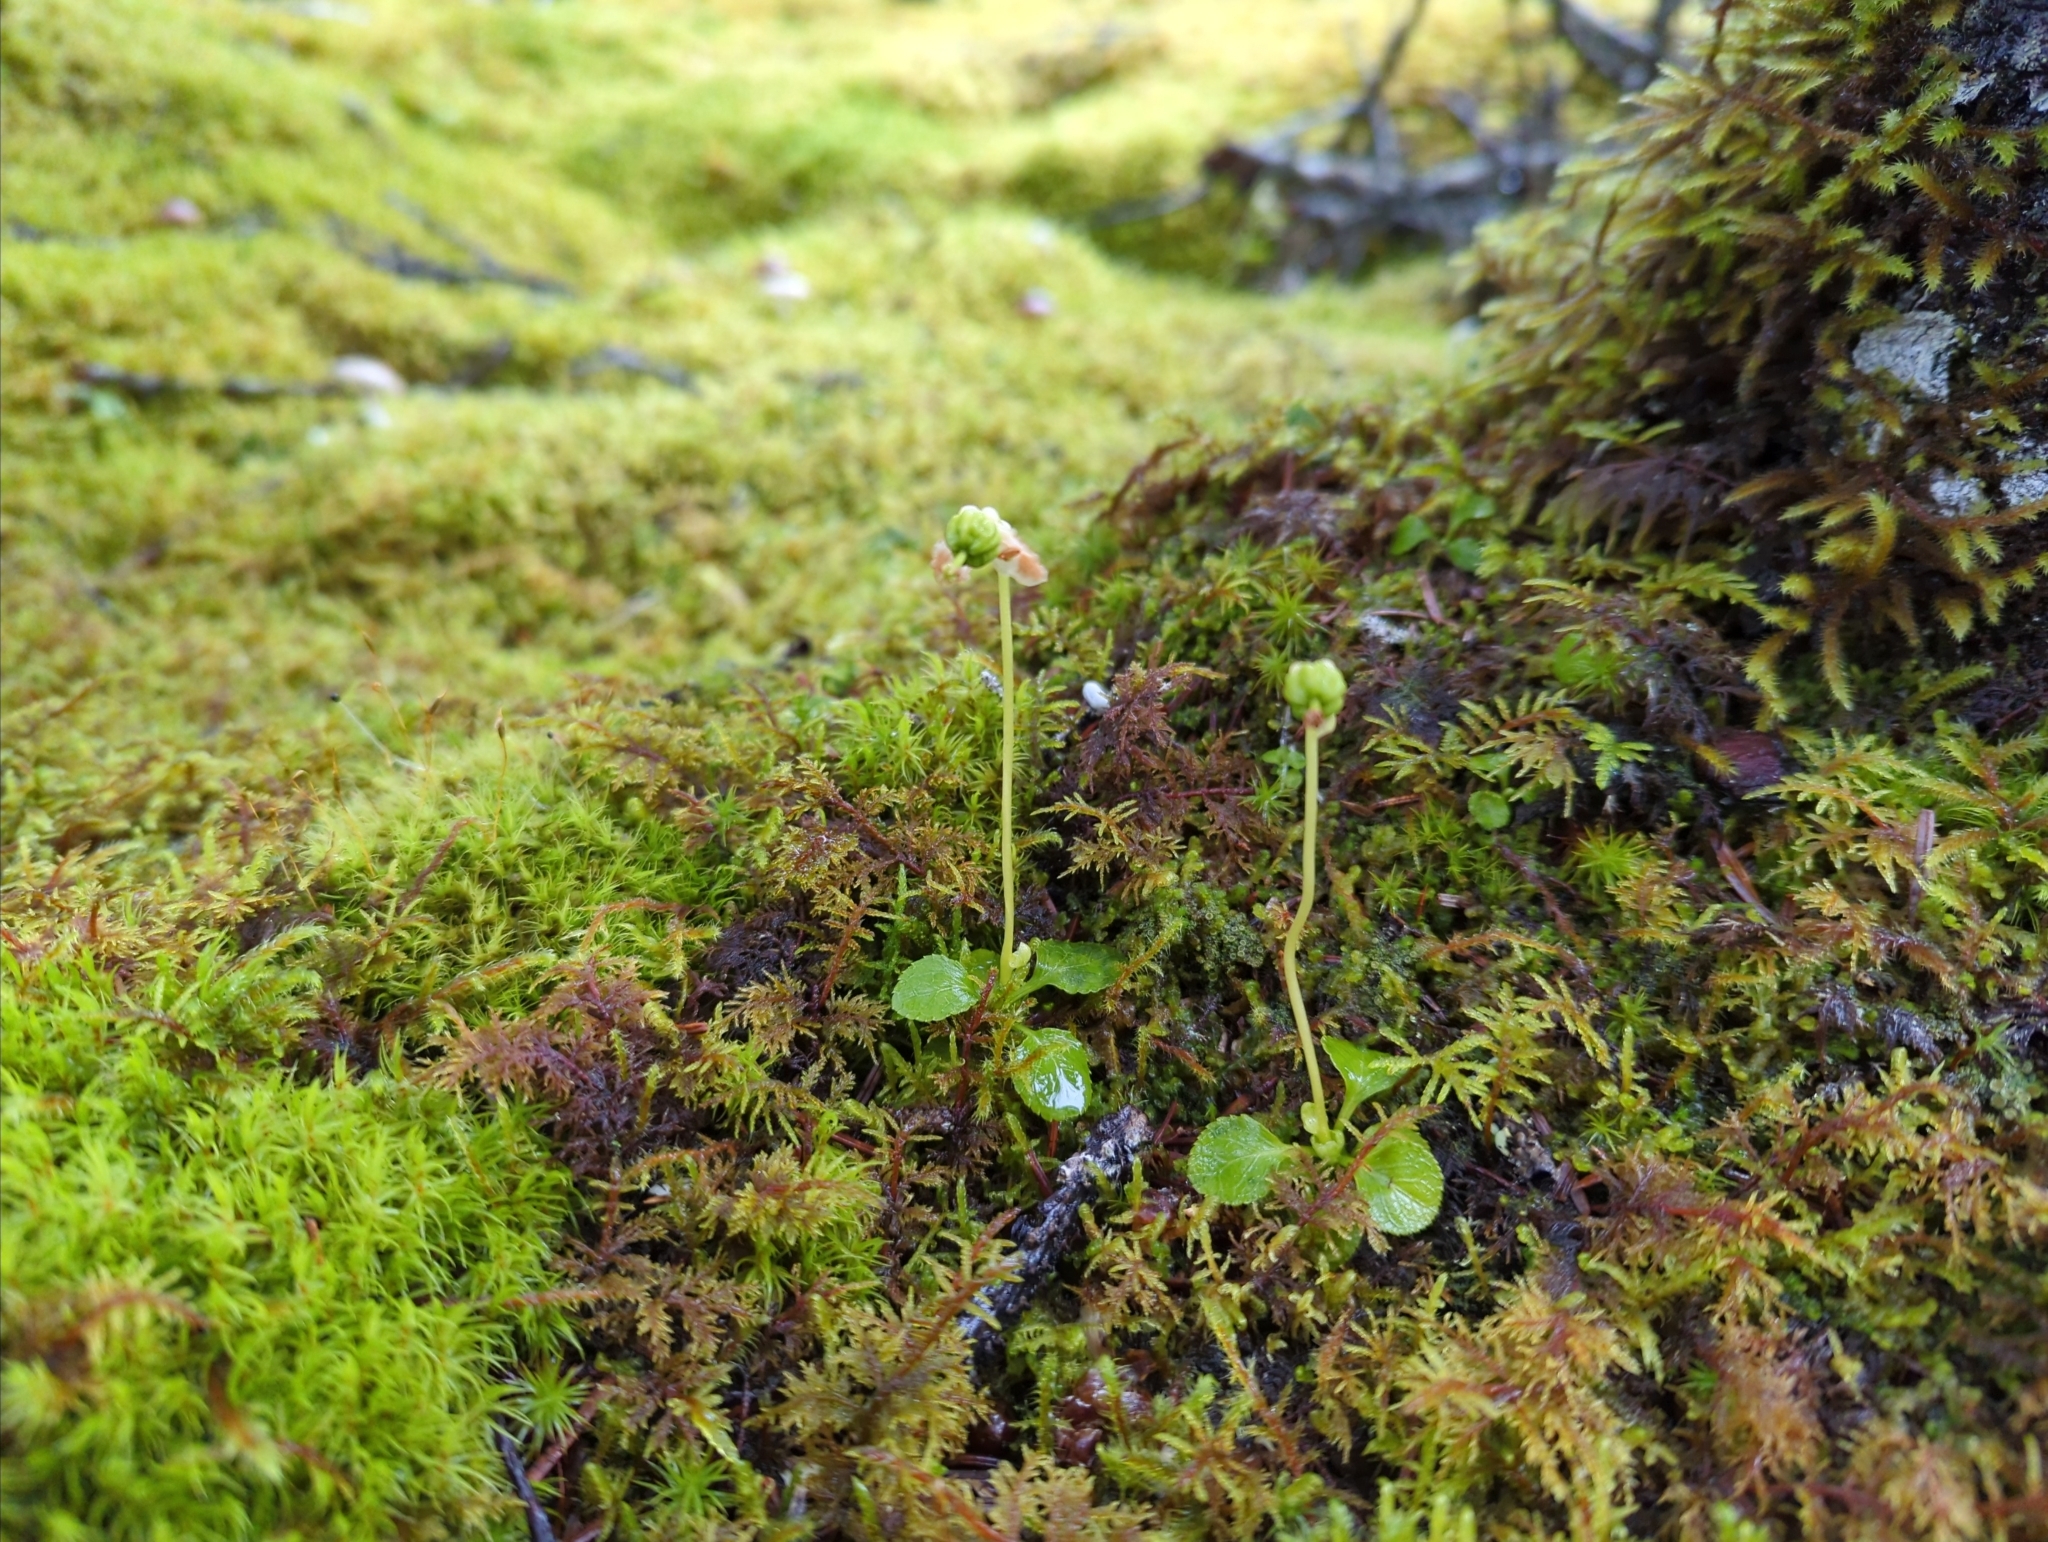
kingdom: Plantae
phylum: Tracheophyta
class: Magnoliopsida
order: Ericales
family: Ericaceae
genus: Moneses
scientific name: Moneses uniflora
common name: One-flowered wintergreen
